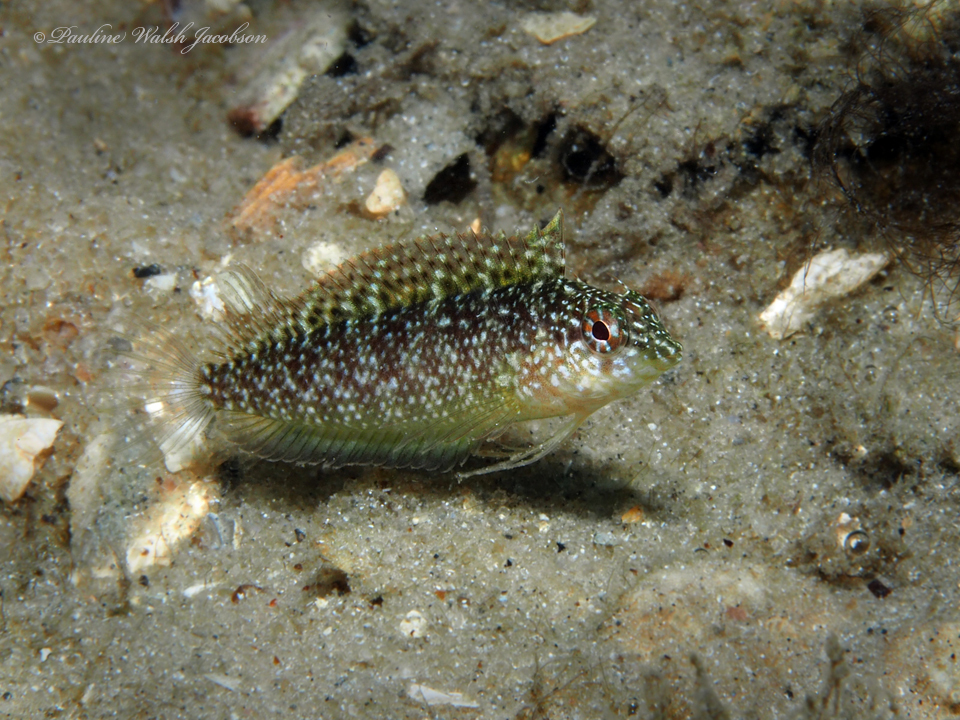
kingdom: Animalia
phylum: Chordata
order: Perciformes
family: Labrisomidae
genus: Malacoctenus
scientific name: Malacoctenus macropus
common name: Rosy blenny
